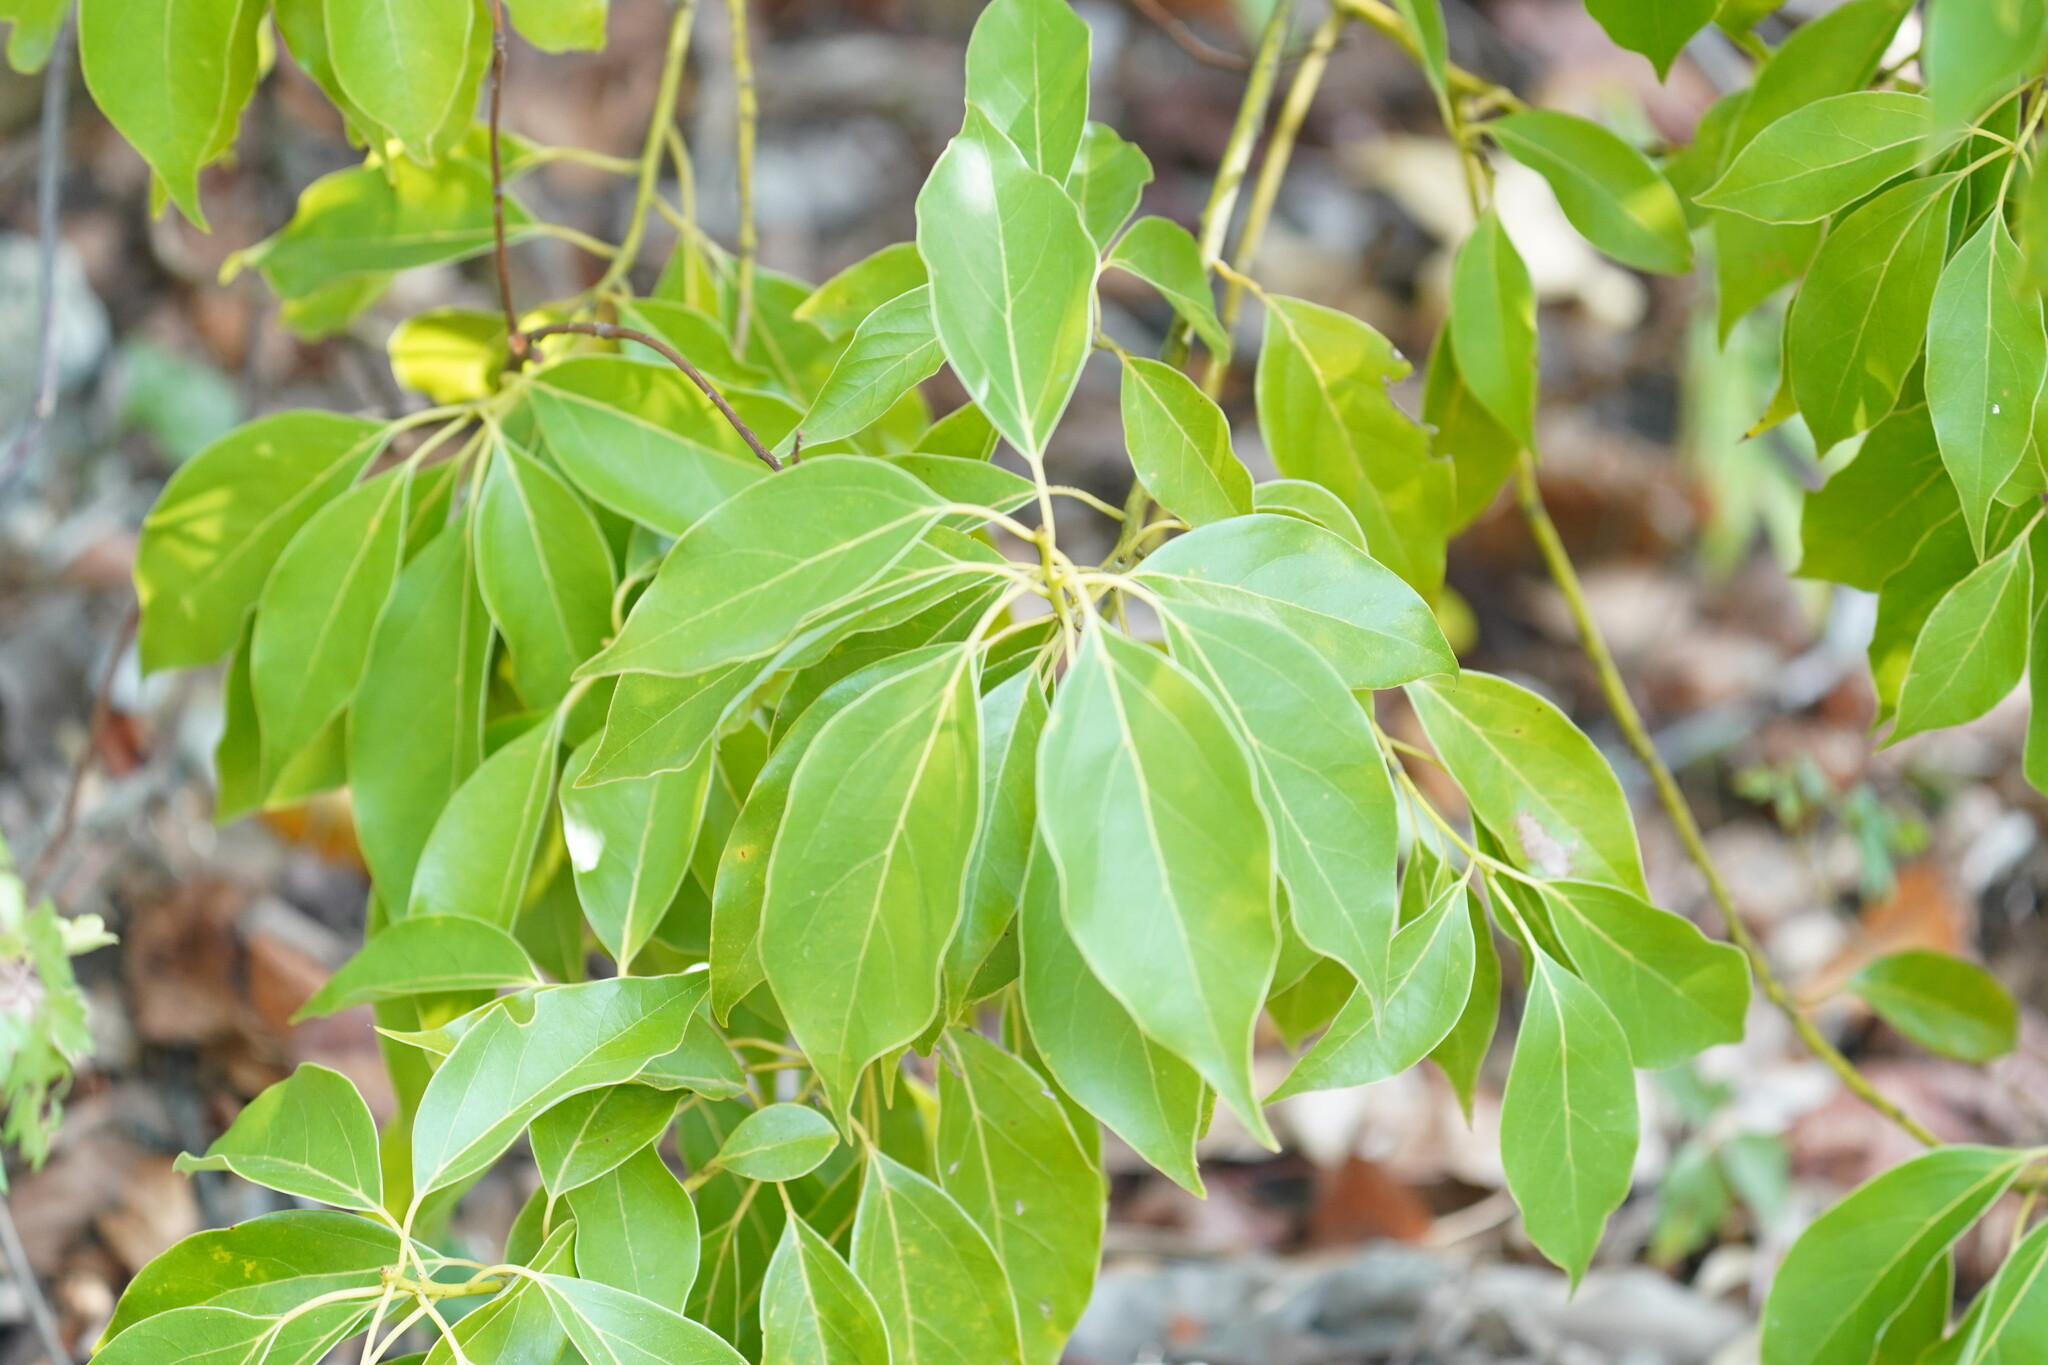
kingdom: Plantae
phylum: Tracheophyta
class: Magnoliopsida
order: Laurales
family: Lauraceae
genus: Cinnamomum
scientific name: Cinnamomum camphora
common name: Camphortree
